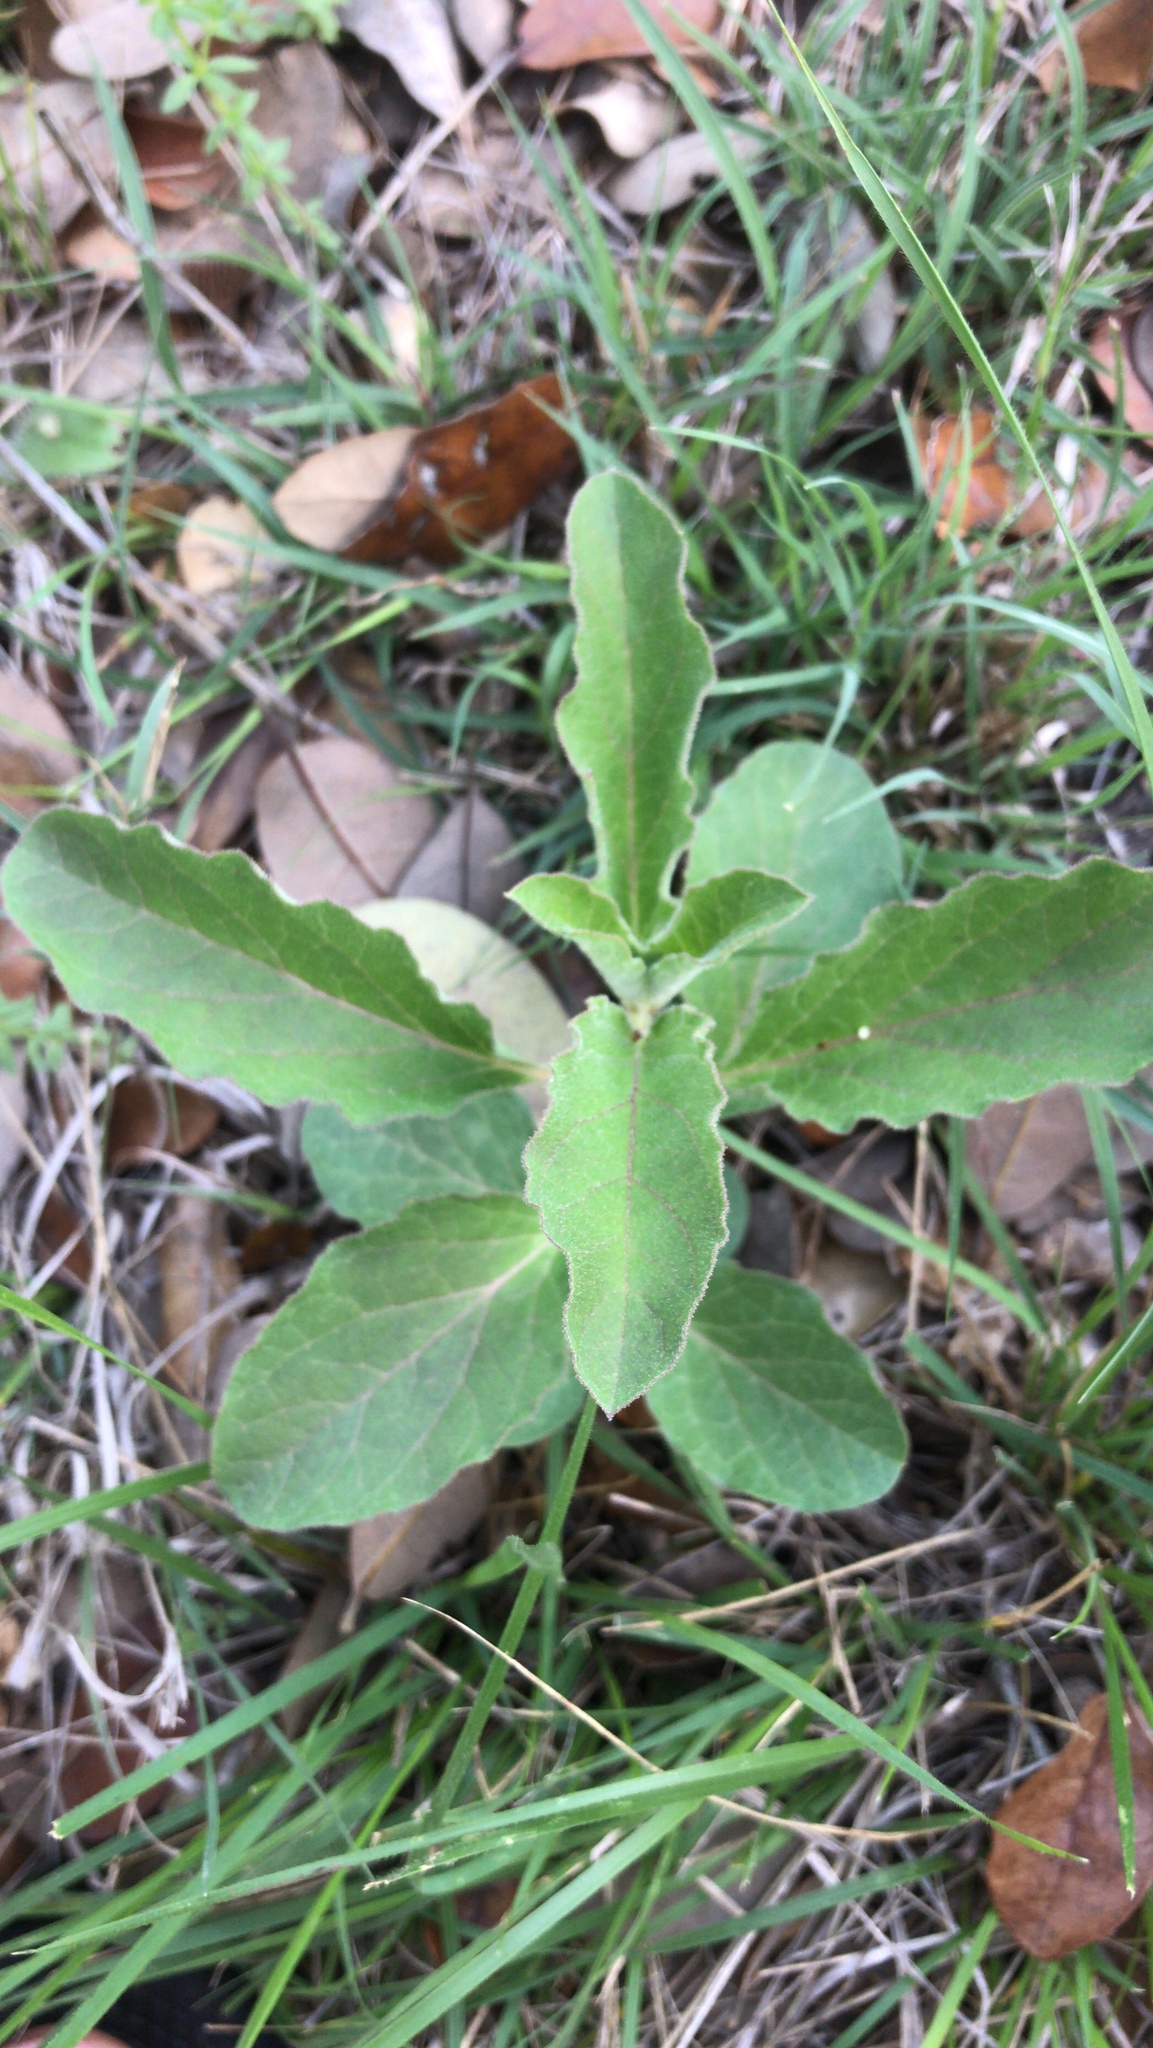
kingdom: Plantae
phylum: Tracheophyta
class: Magnoliopsida
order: Gentianales
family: Apocynaceae
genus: Asclepias
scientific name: Asclepias oenotheroides
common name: Zizotes milkweed
